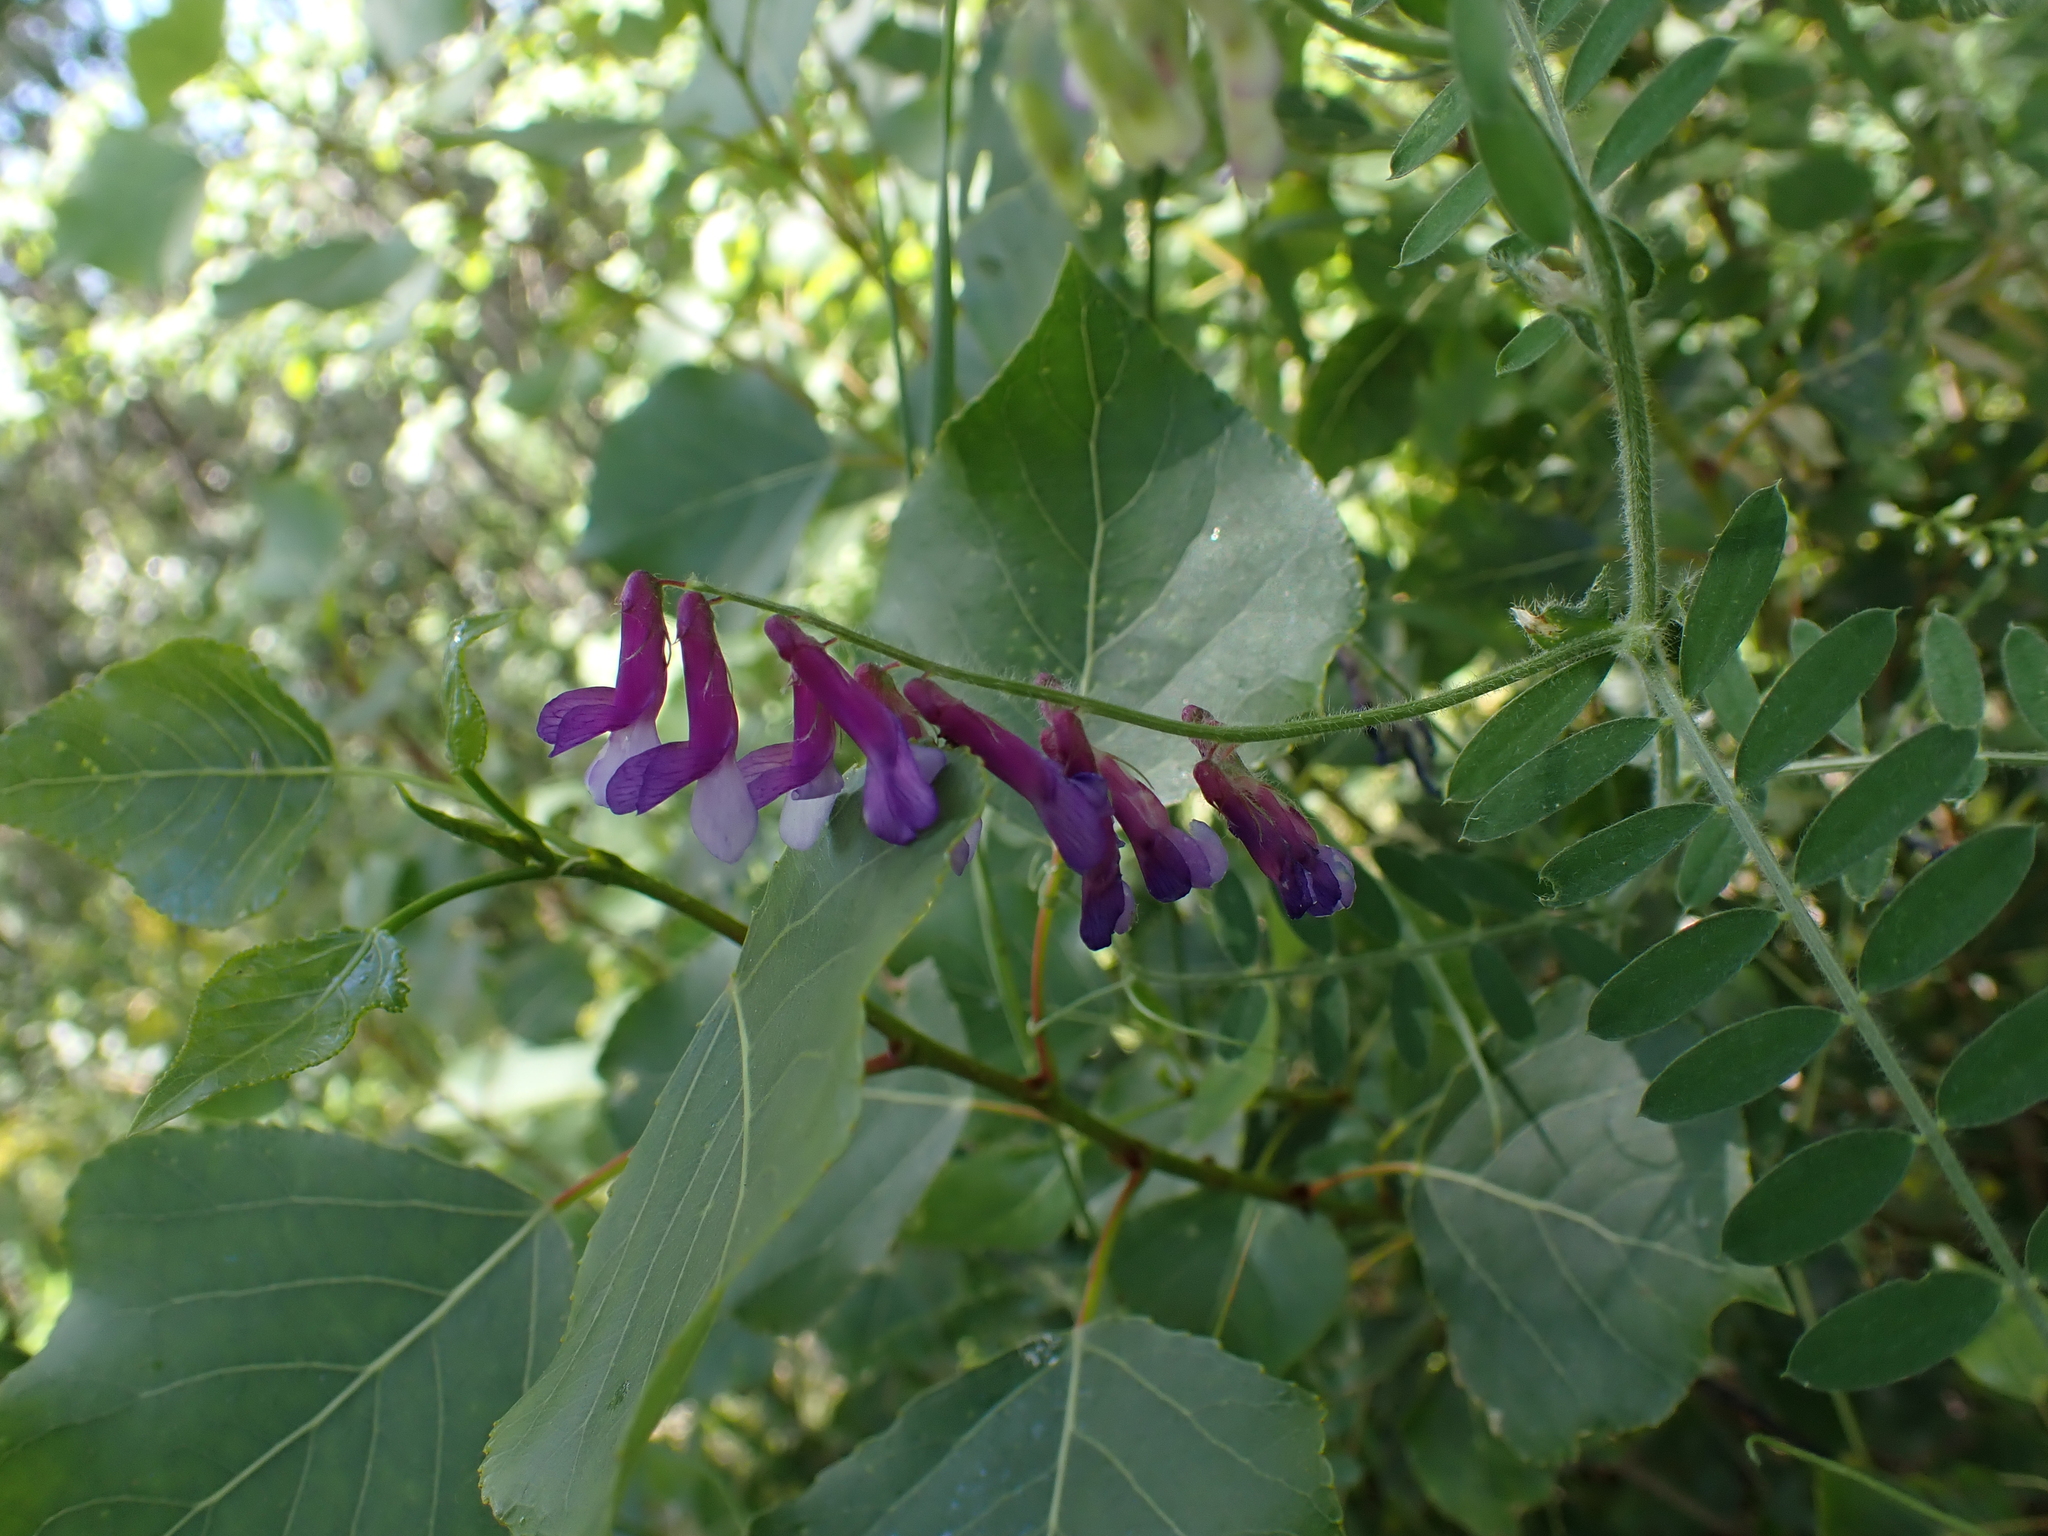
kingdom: Plantae
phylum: Tracheophyta
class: Magnoliopsida
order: Fabales
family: Fabaceae
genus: Vicia
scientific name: Vicia villosa
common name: Fodder vetch
